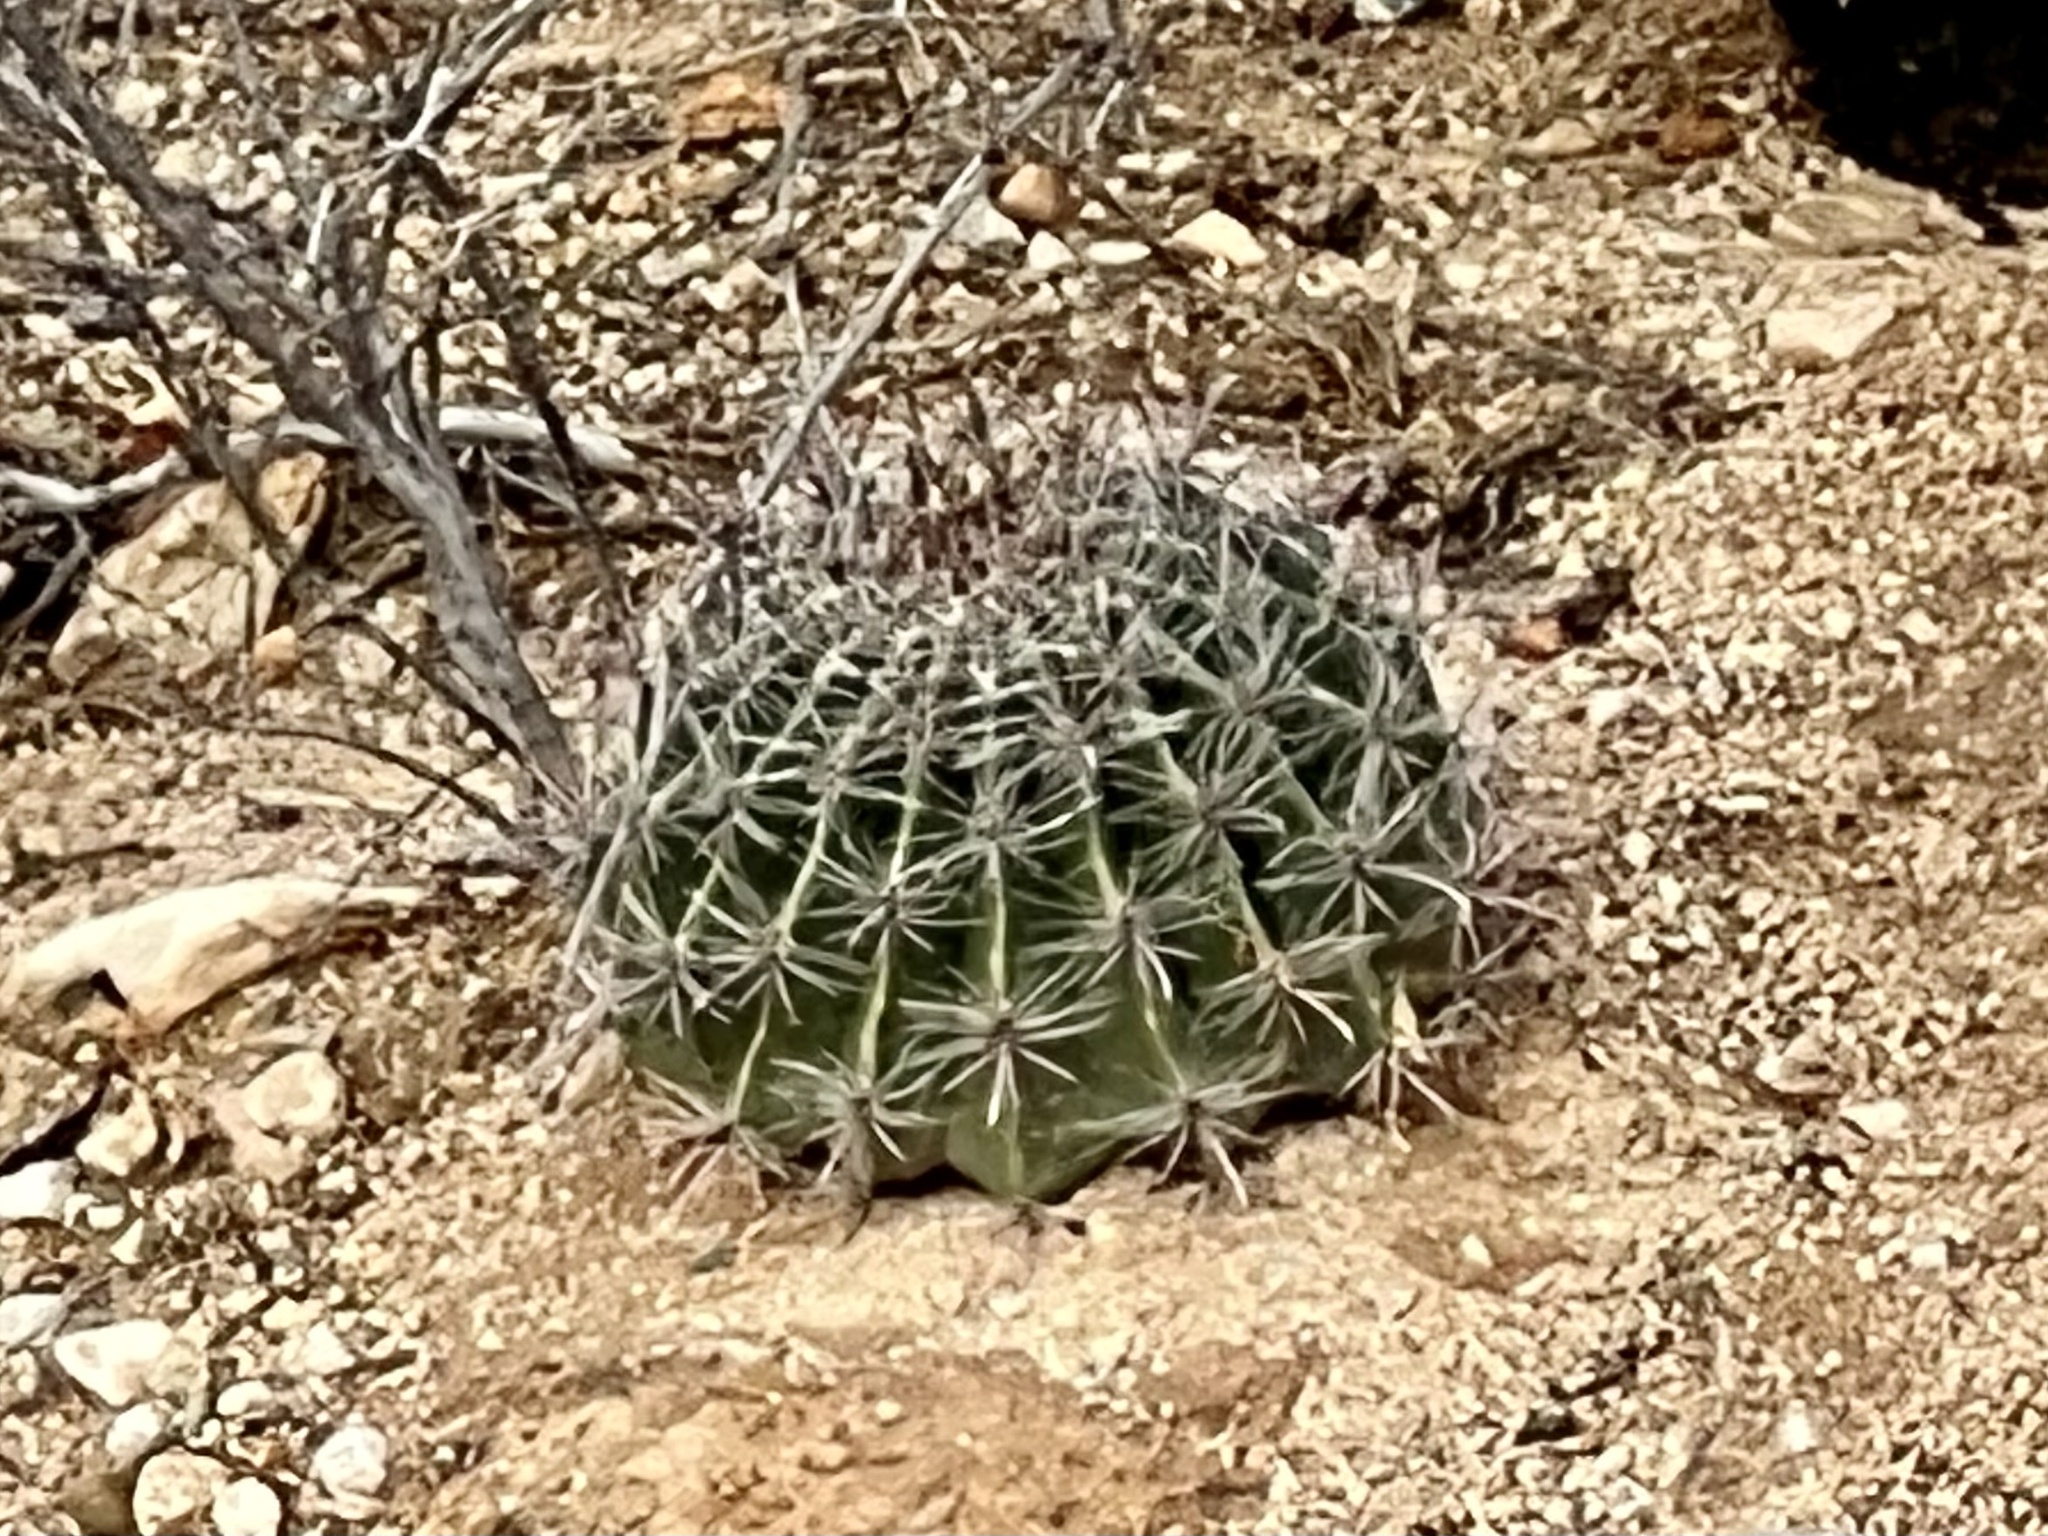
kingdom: Plantae
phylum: Tracheophyta
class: Magnoliopsida
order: Caryophyllales
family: Cactaceae
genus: Ferocactus
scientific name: Ferocactus wislizeni
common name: Candy barrel cactus
